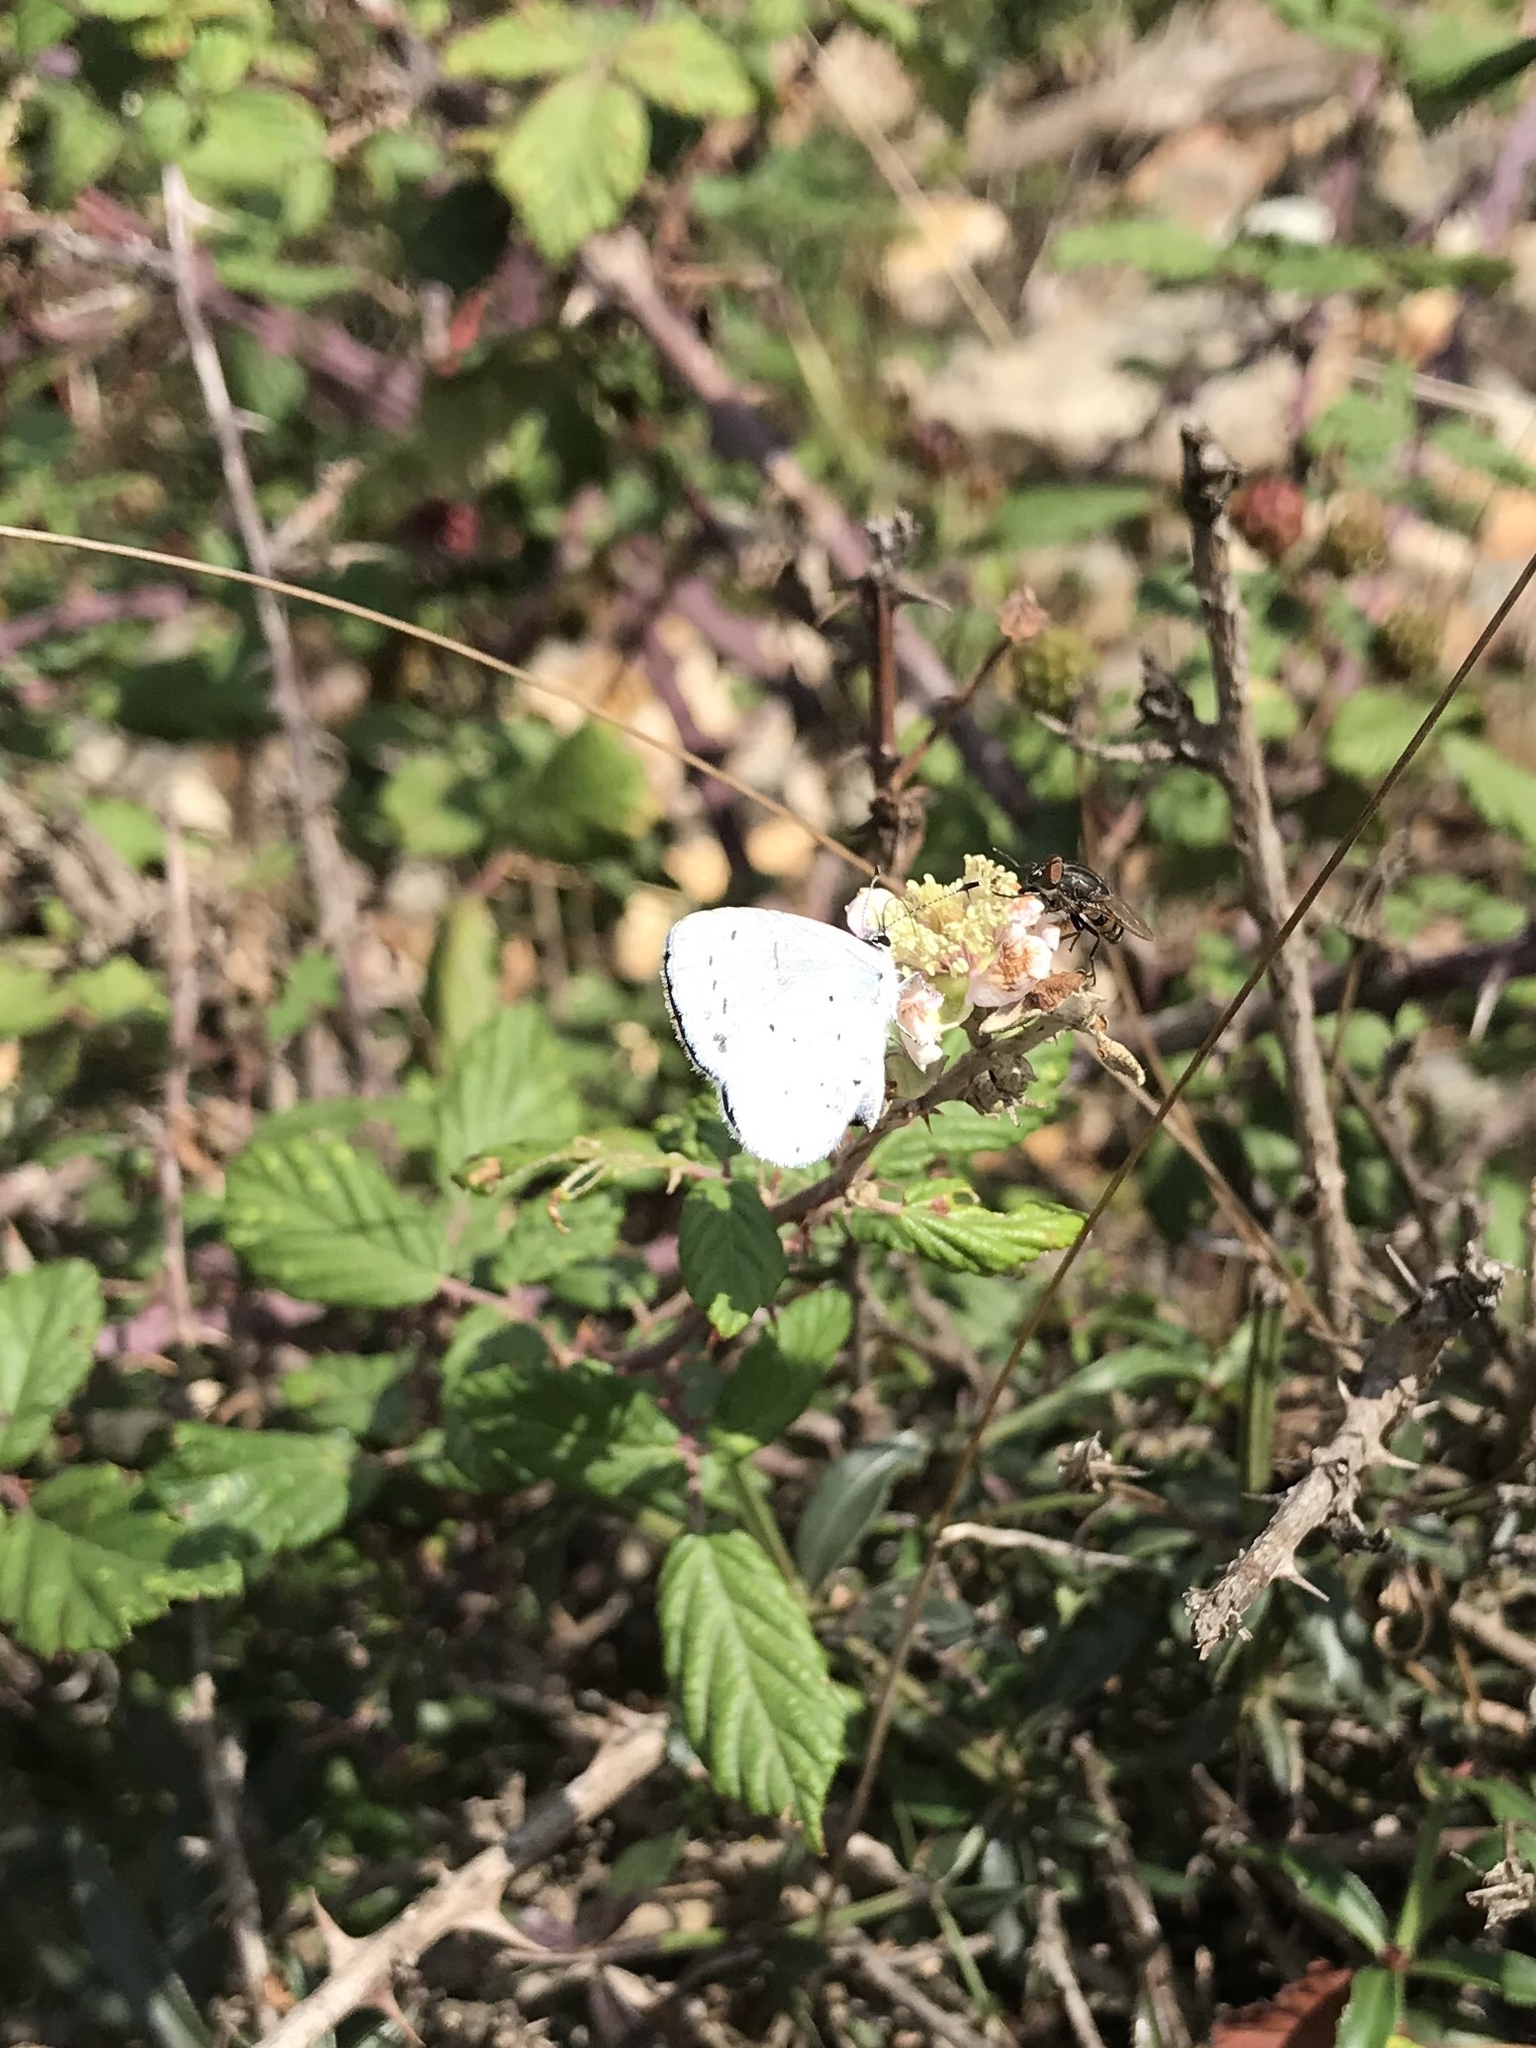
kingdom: Animalia
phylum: Arthropoda
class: Insecta
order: Lepidoptera
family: Lycaenidae
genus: Celastrina
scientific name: Celastrina argiolus
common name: Holly blue
